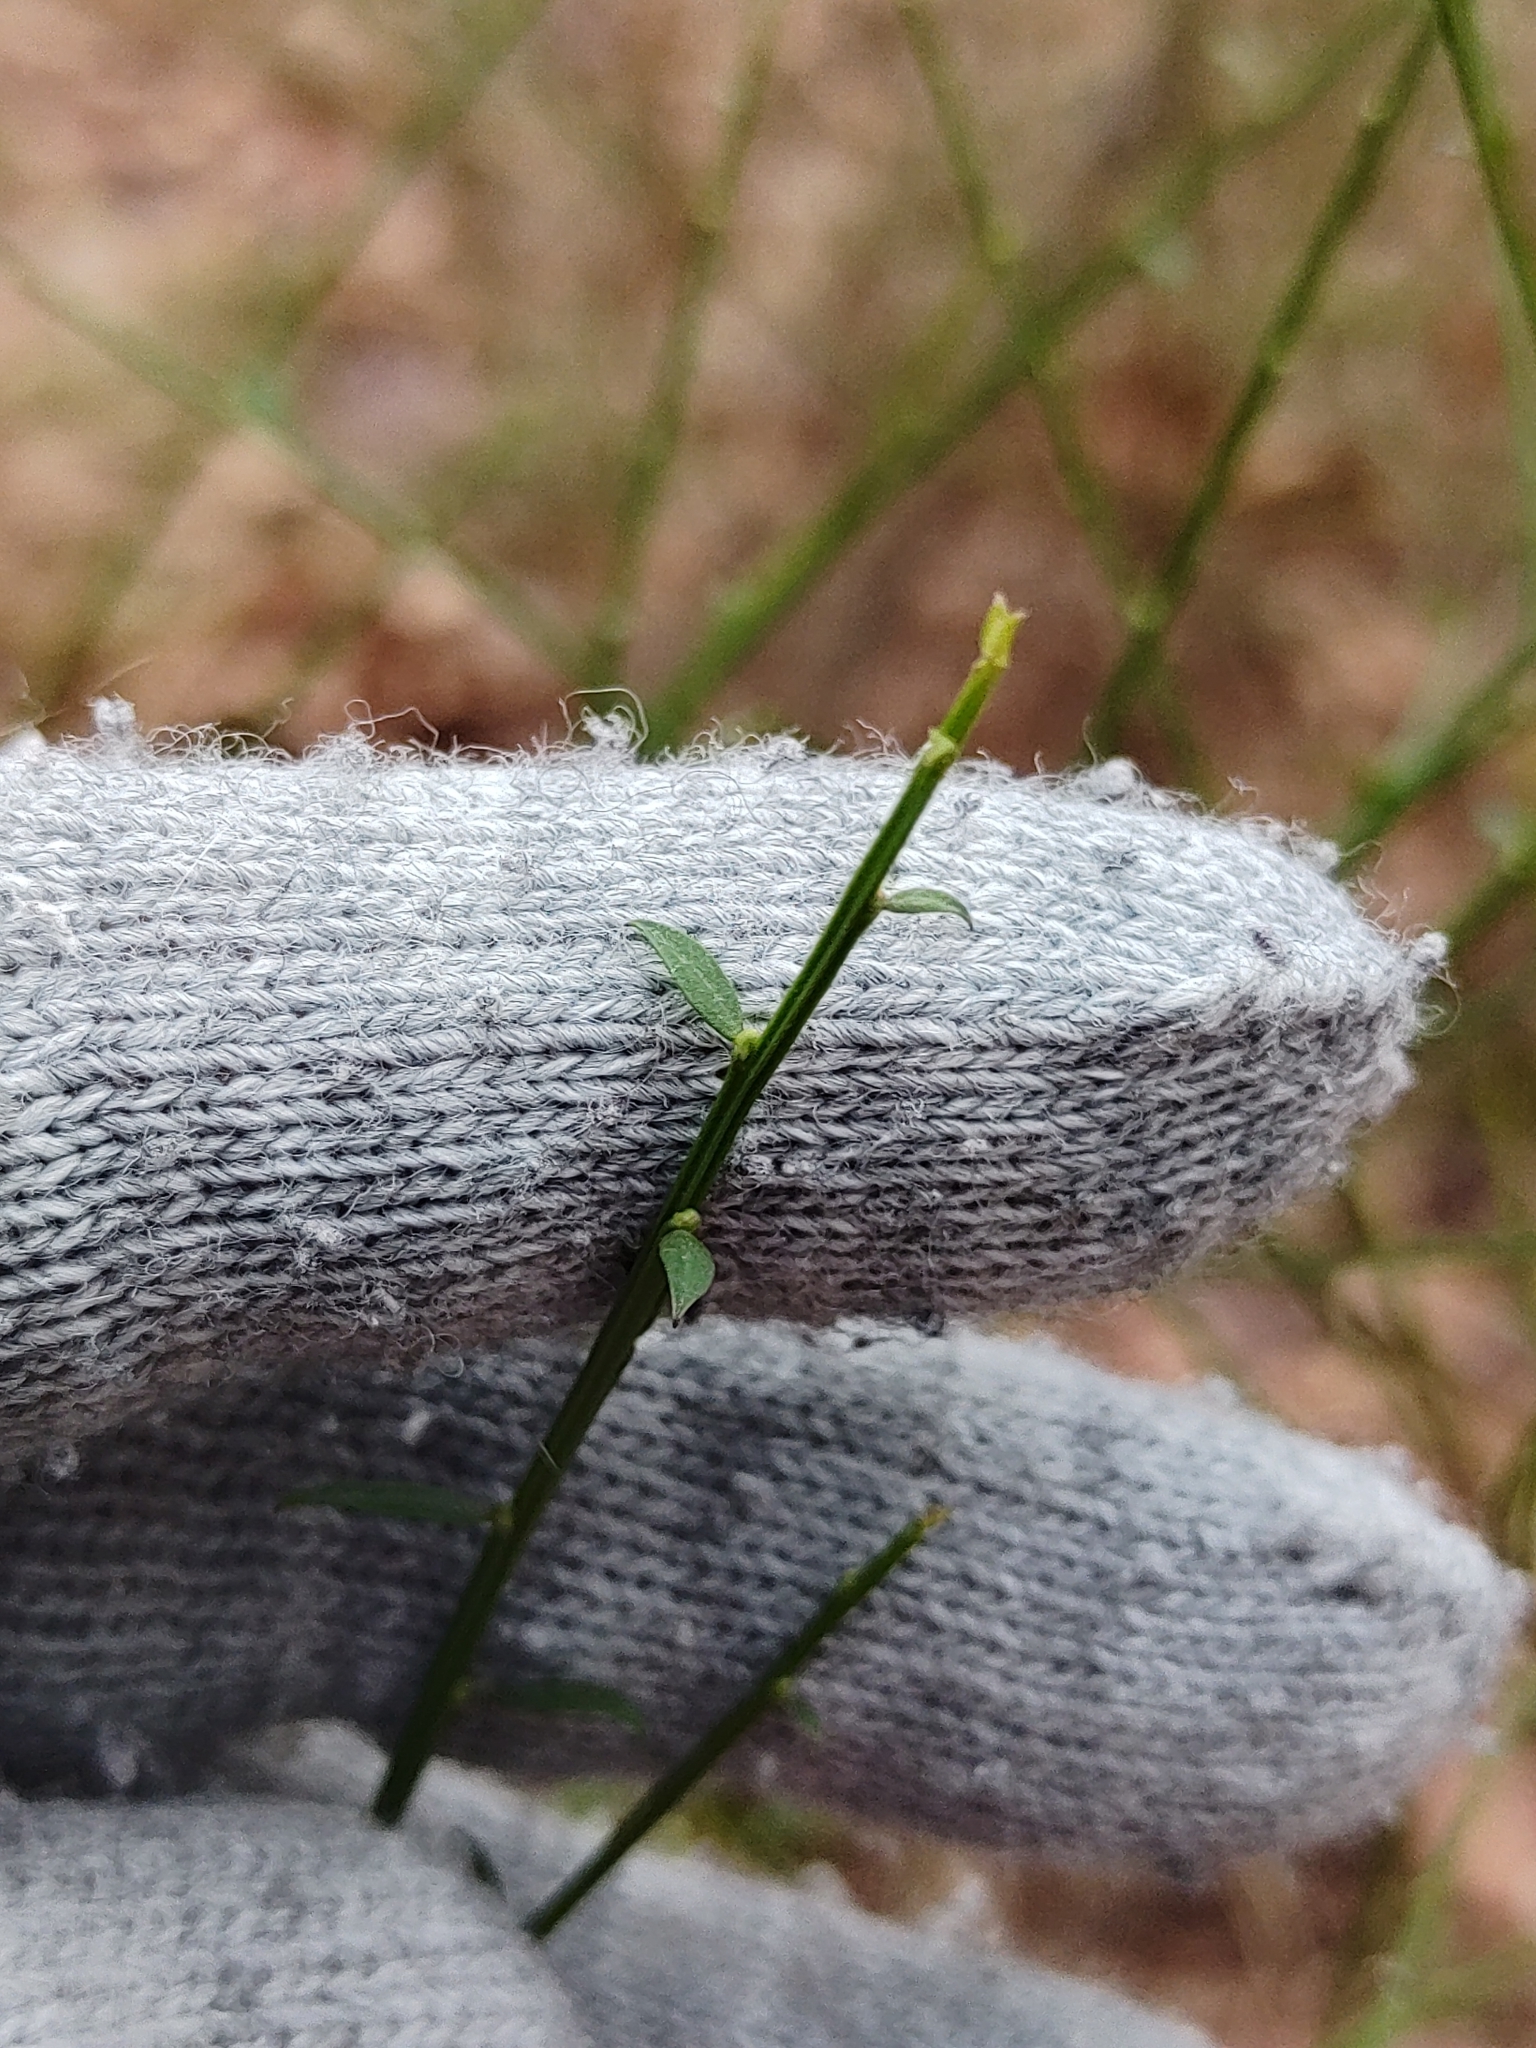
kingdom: Plantae
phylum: Tracheophyta
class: Magnoliopsida
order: Fabales
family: Fabaceae
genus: Cytisus
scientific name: Cytisus scoparius
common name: Scotch broom
